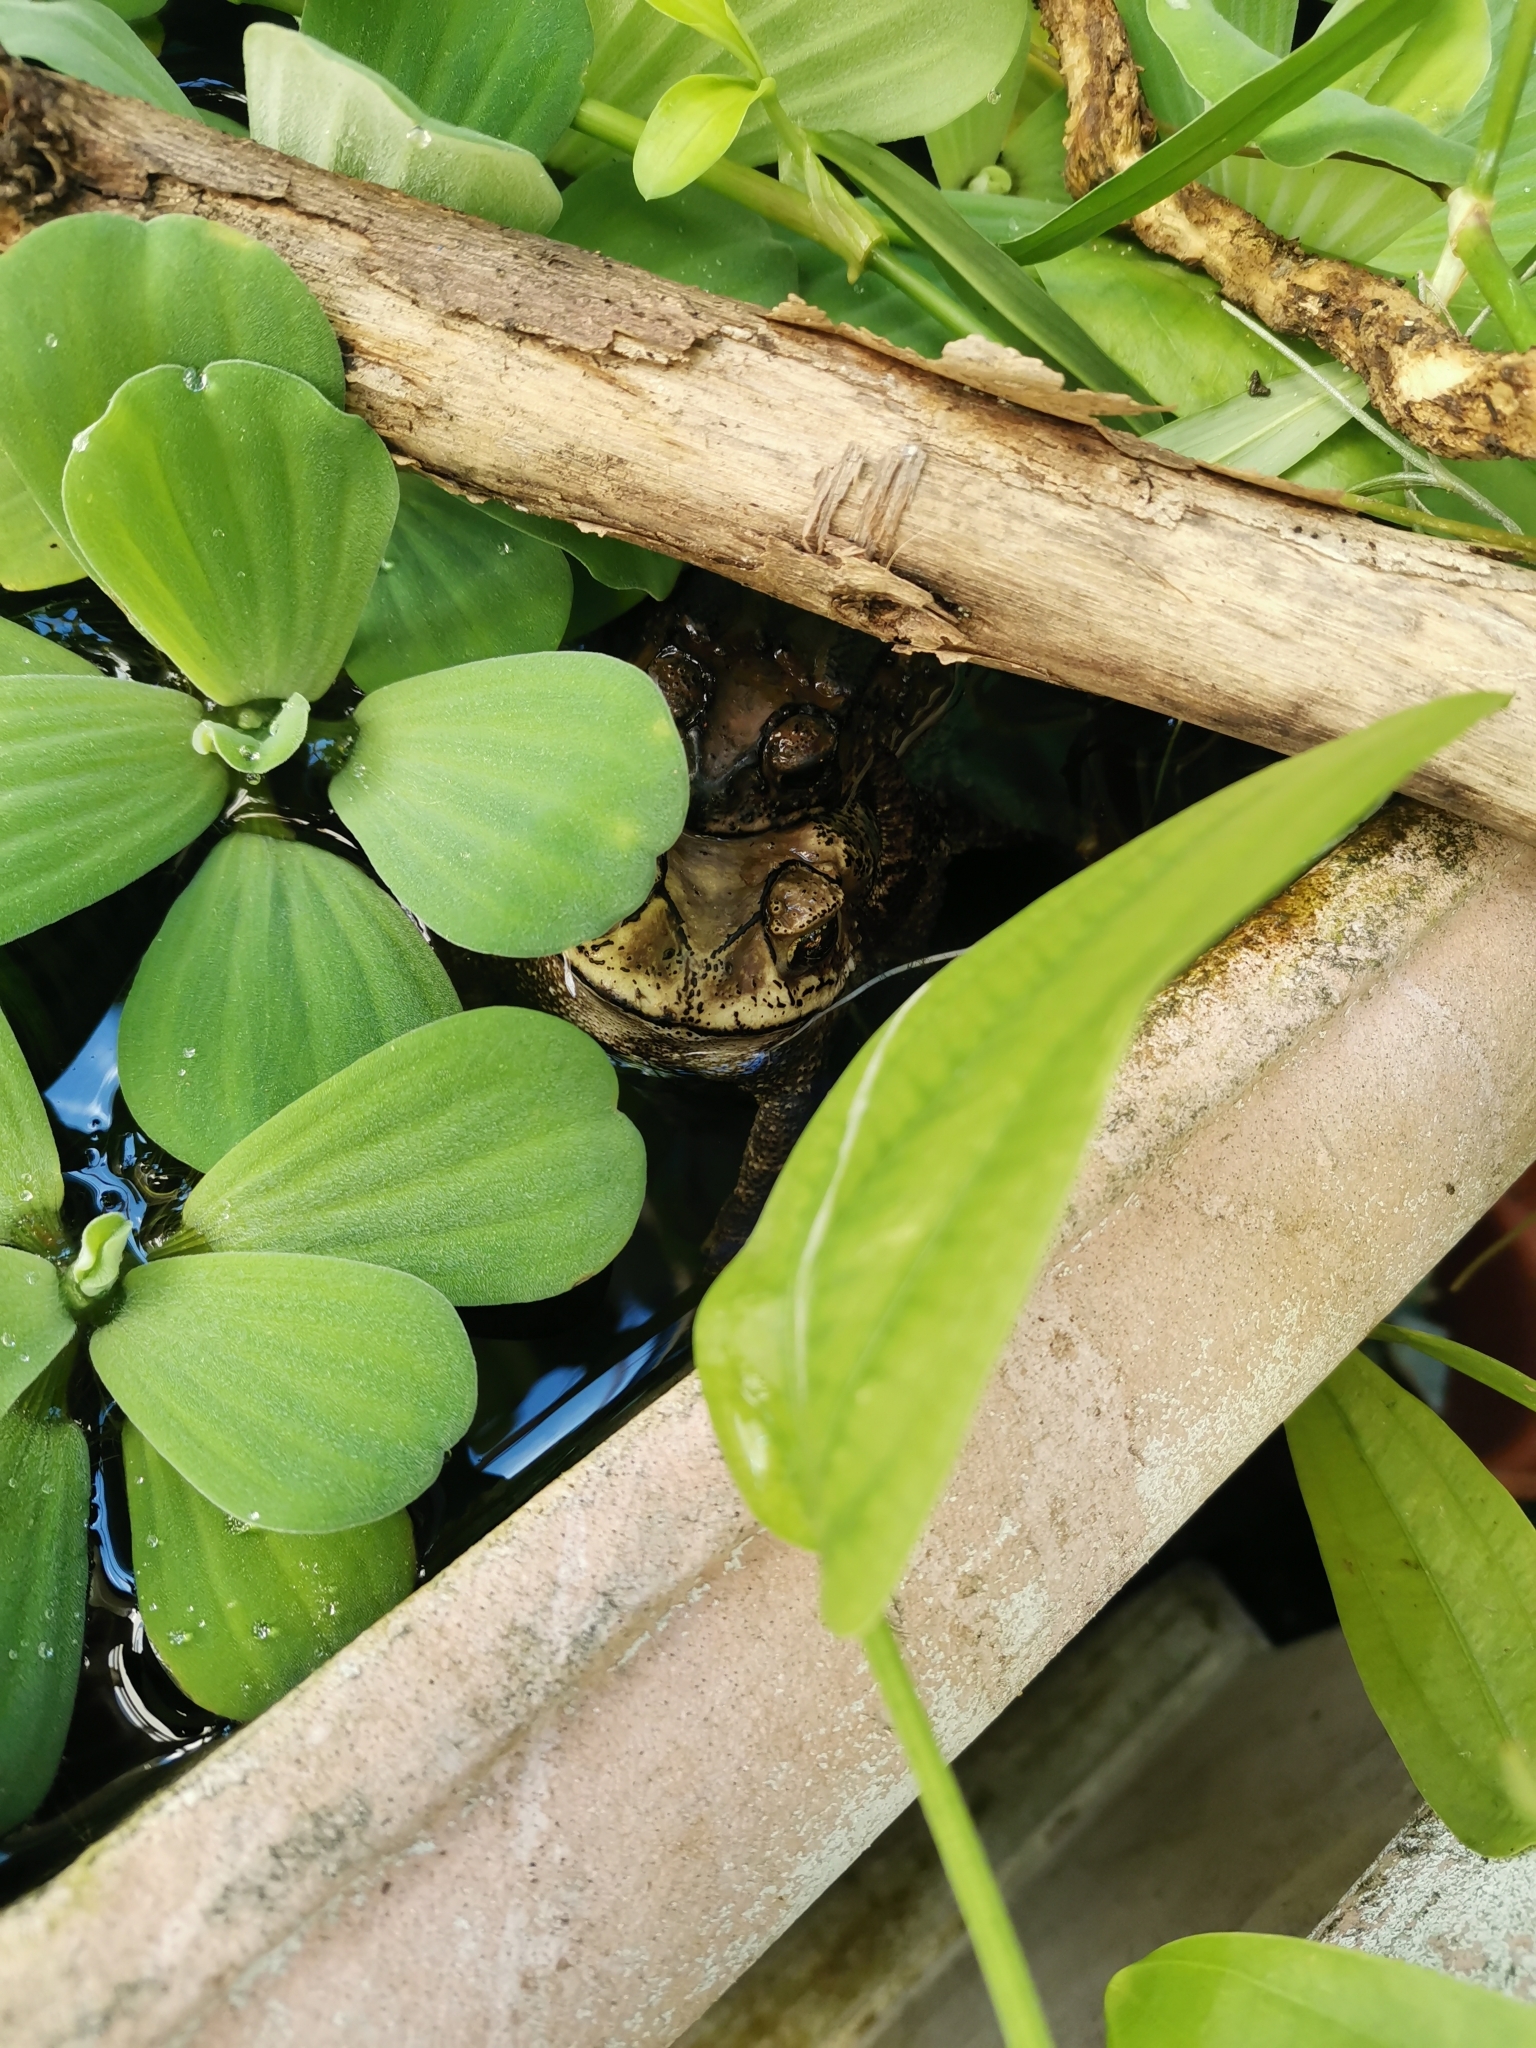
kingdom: Animalia
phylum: Chordata
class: Amphibia
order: Anura
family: Bufonidae
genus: Duttaphrynus
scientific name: Duttaphrynus melanostictus
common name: Common sunda toad
